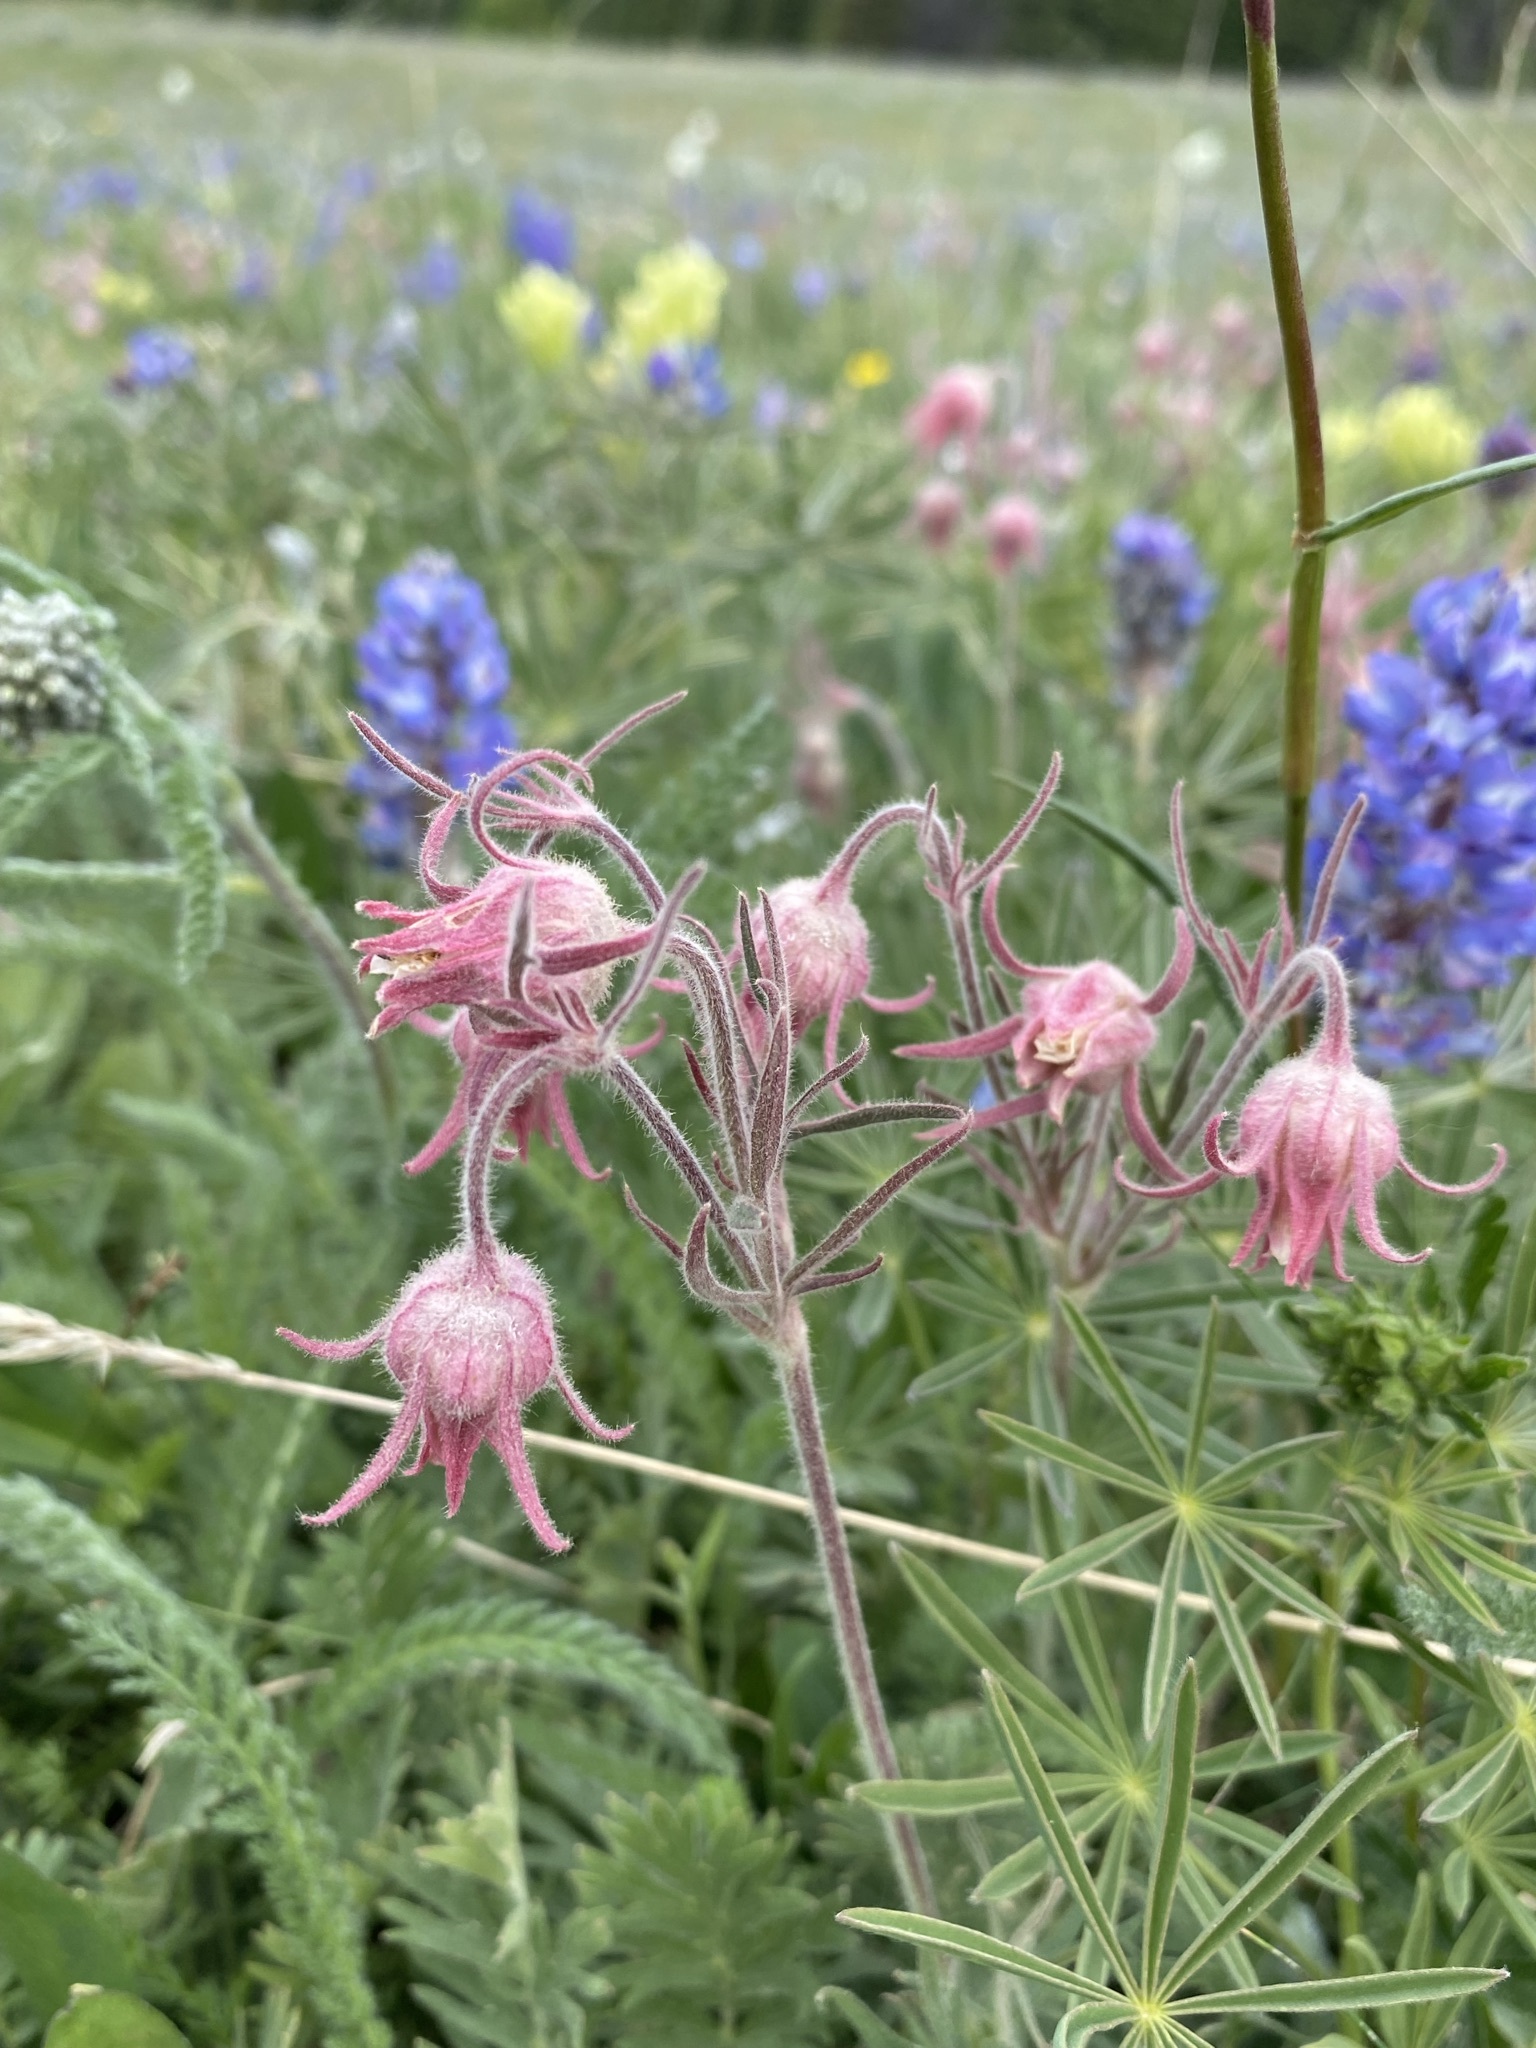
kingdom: Plantae
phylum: Tracheophyta
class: Magnoliopsida
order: Rosales
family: Rosaceae
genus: Geum
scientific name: Geum triflorum
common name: Old man's whiskers
